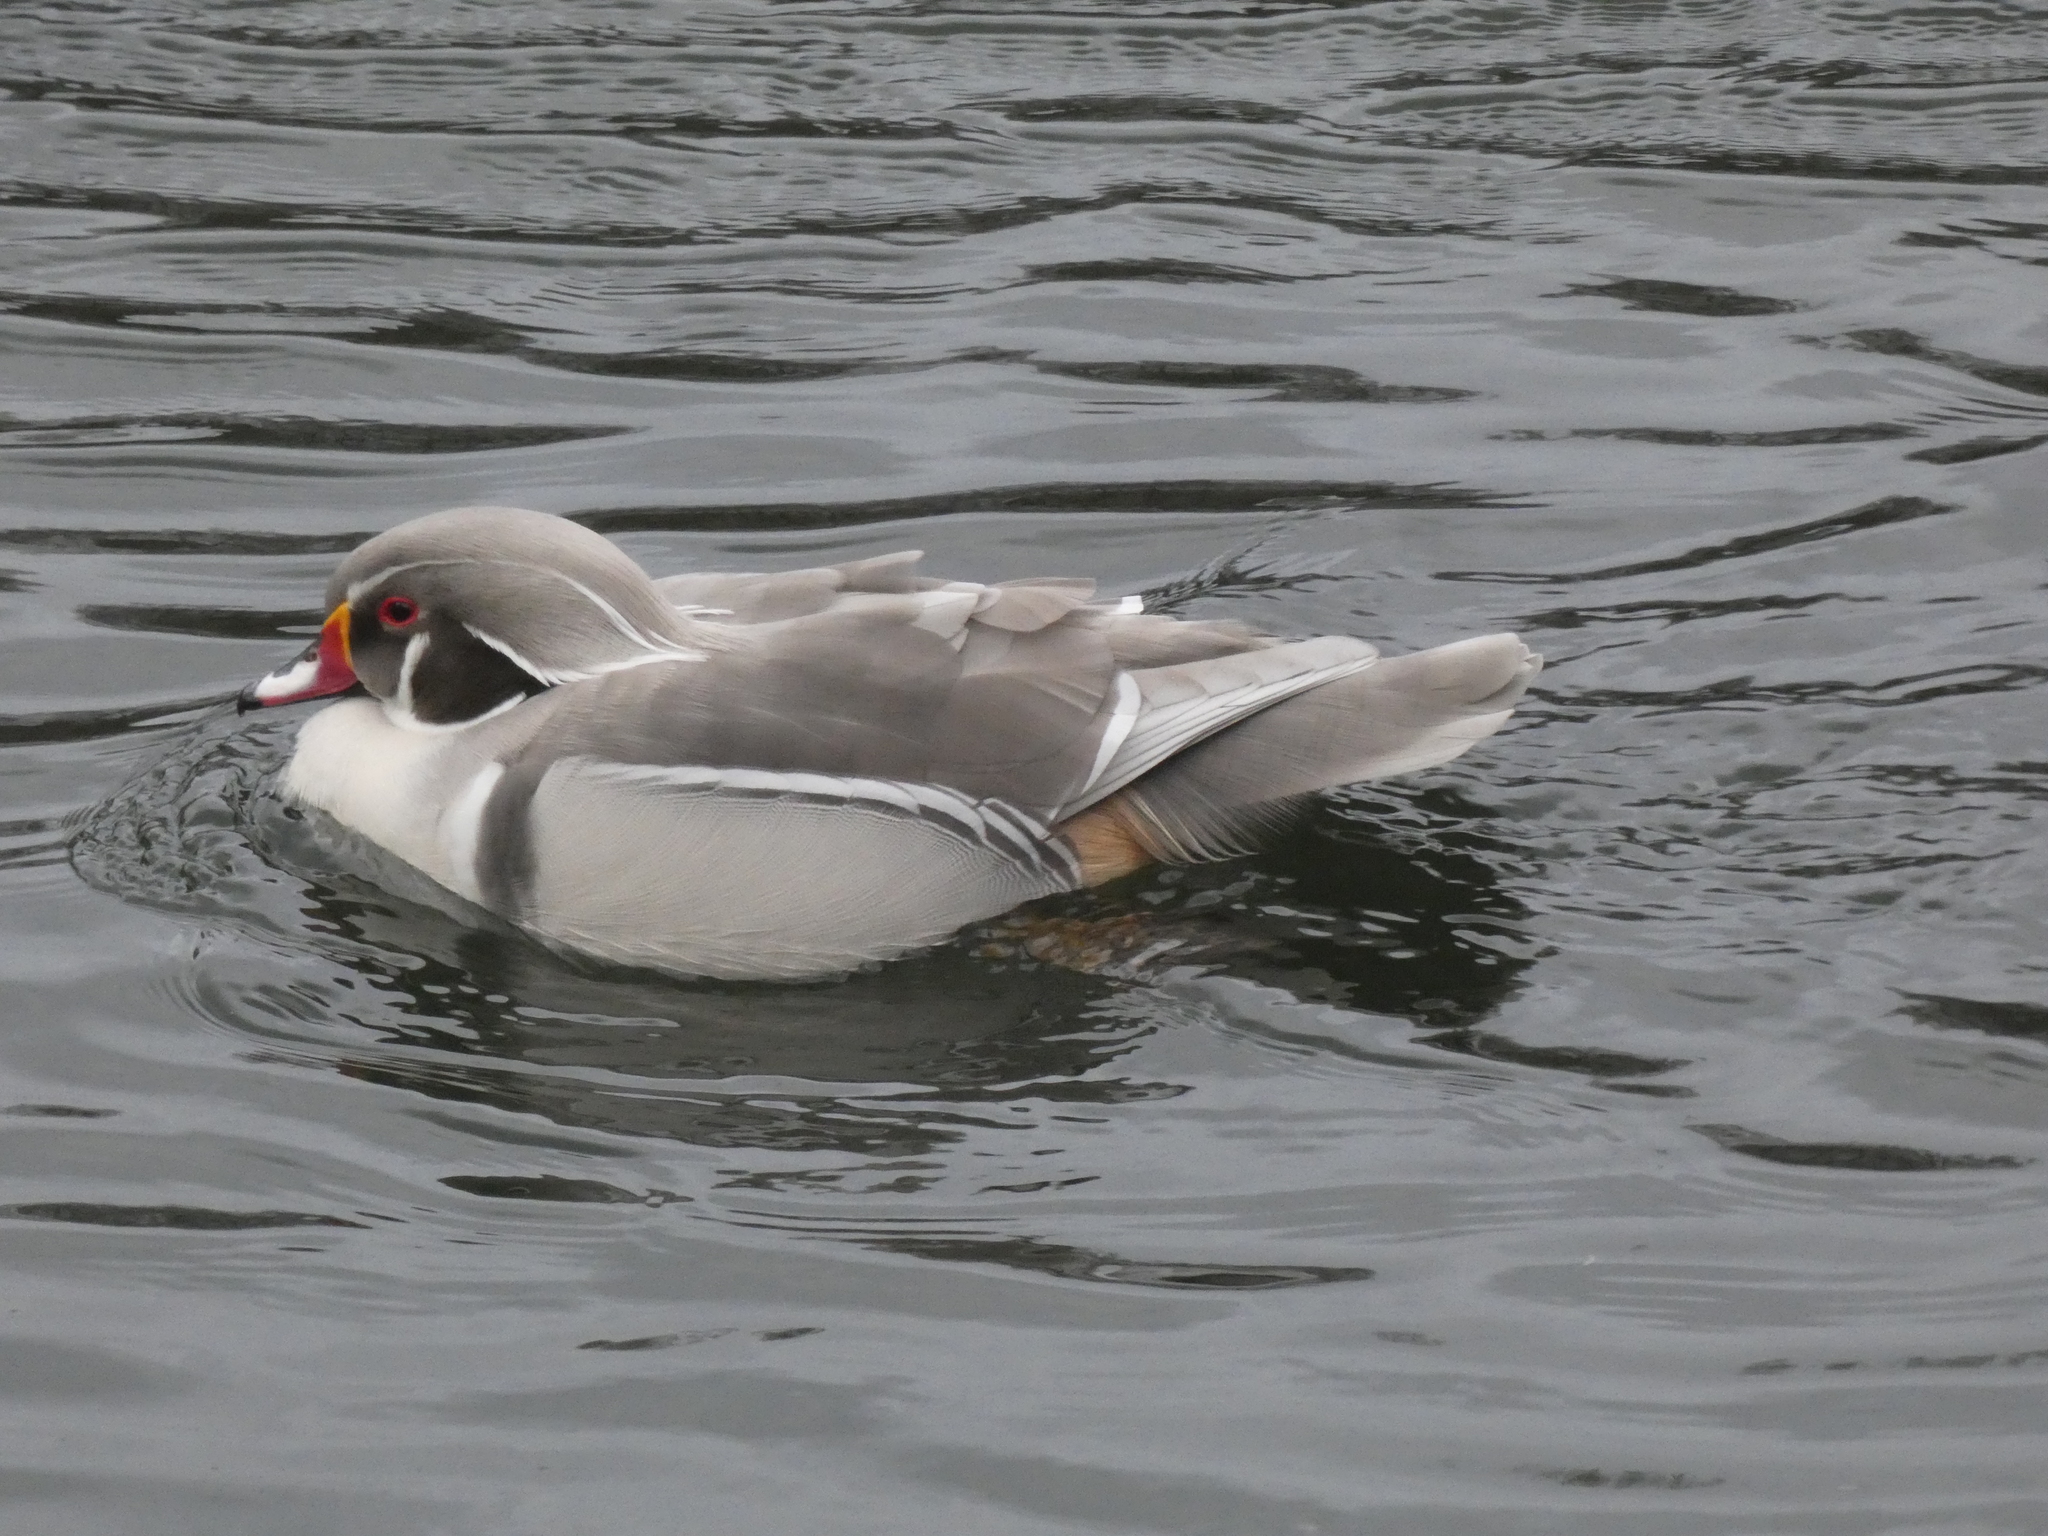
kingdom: Animalia
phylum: Chordata
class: Aves
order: Anseriformes
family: Anatidae
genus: Aix
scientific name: Aix sponsa
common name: Wood duck
